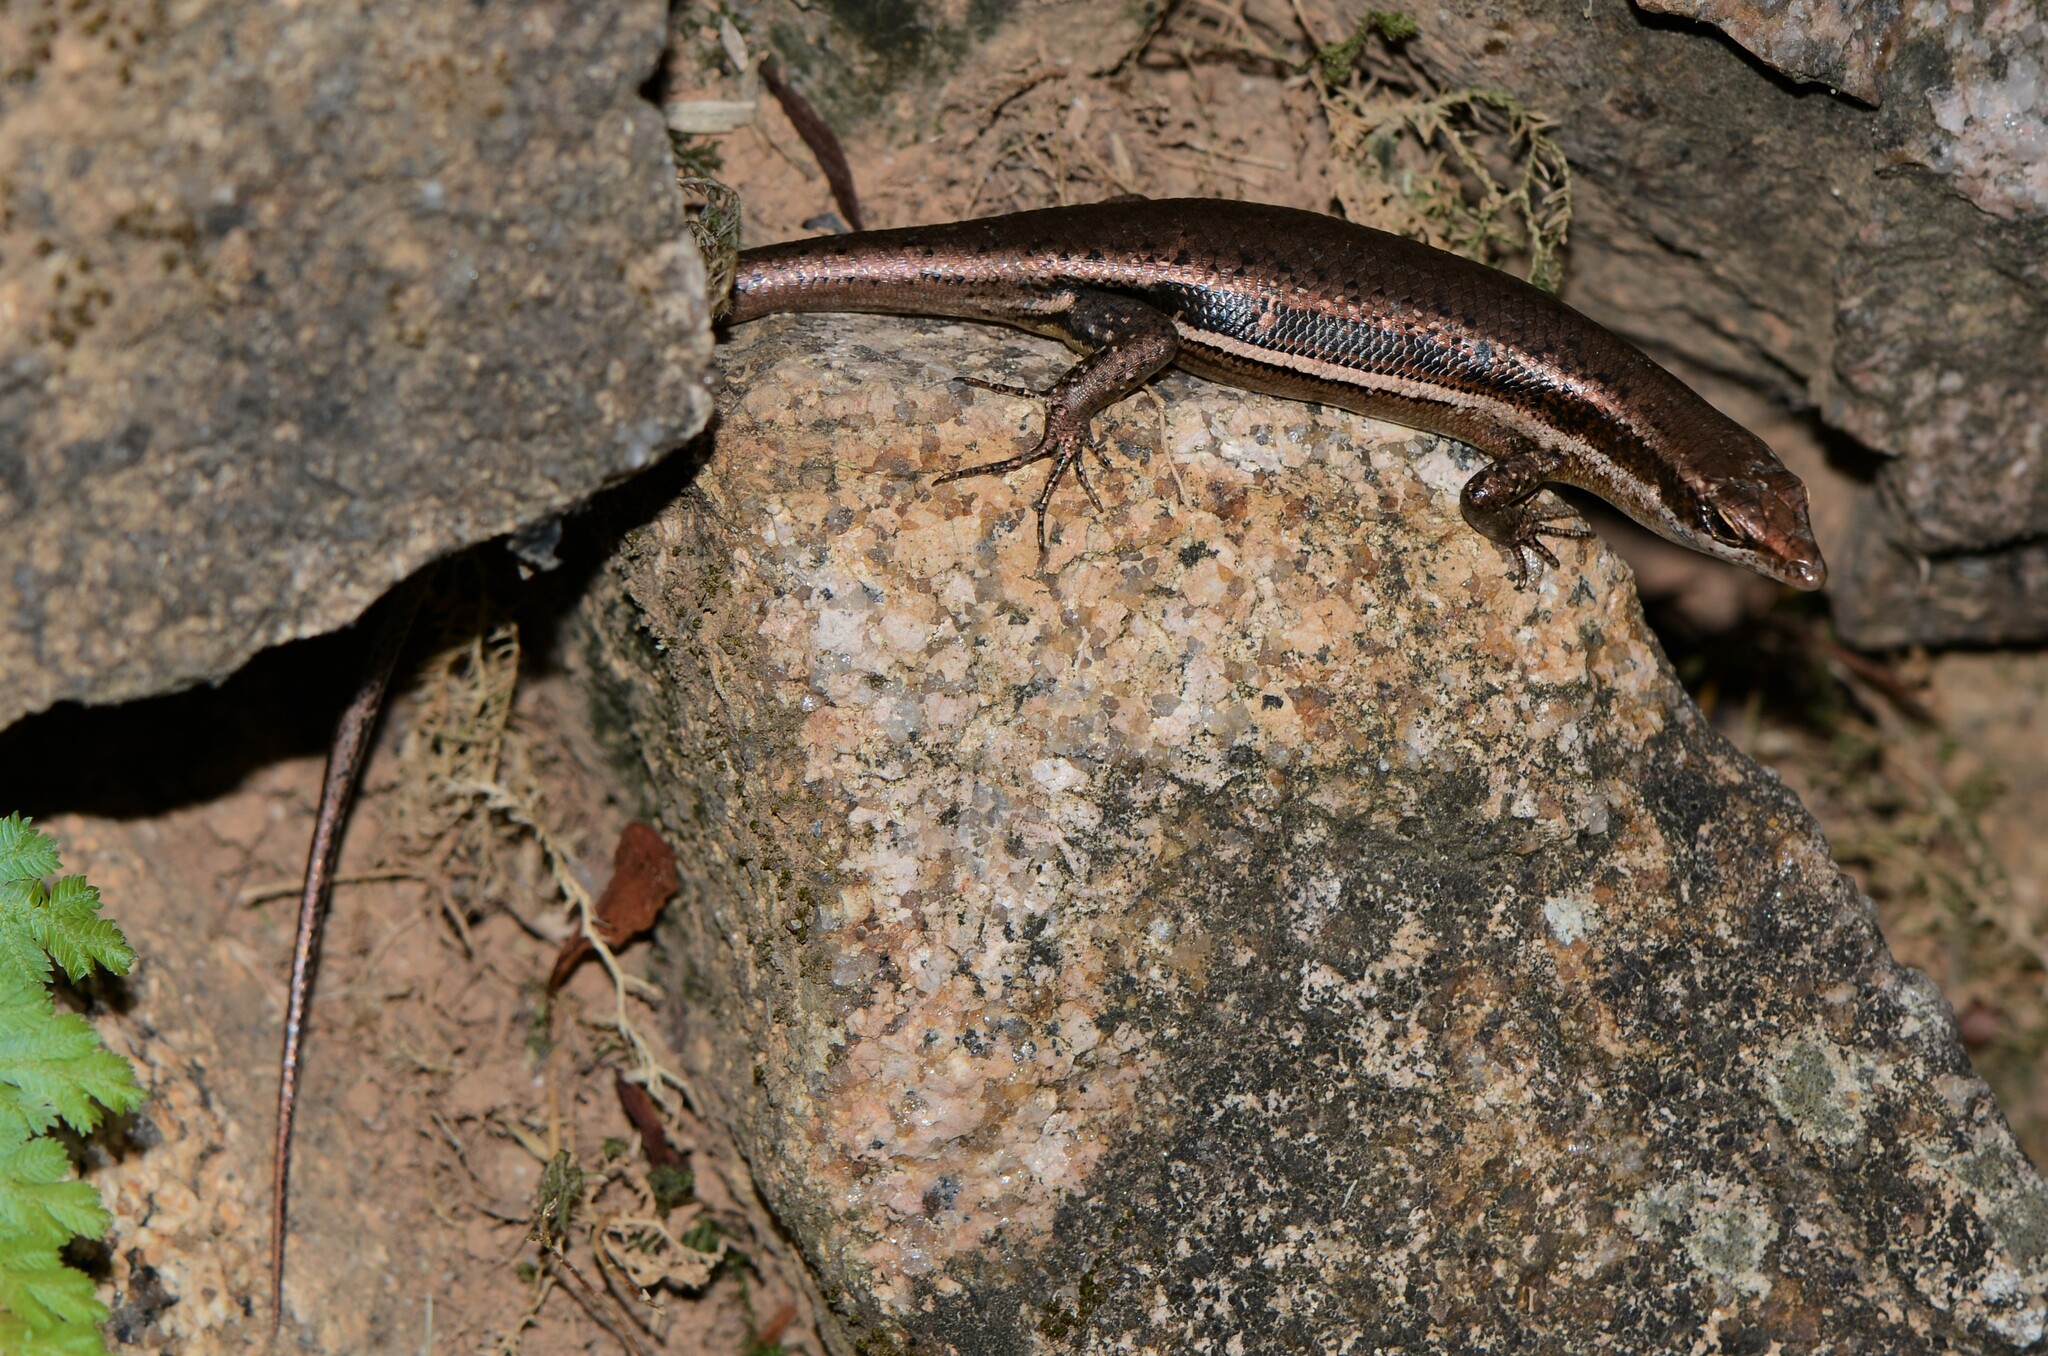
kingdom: Animalia
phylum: Chordata
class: Squamata
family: Scincidae
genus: Trachylepis
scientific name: Trachylepis sechellensis
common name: Seychelles skink
